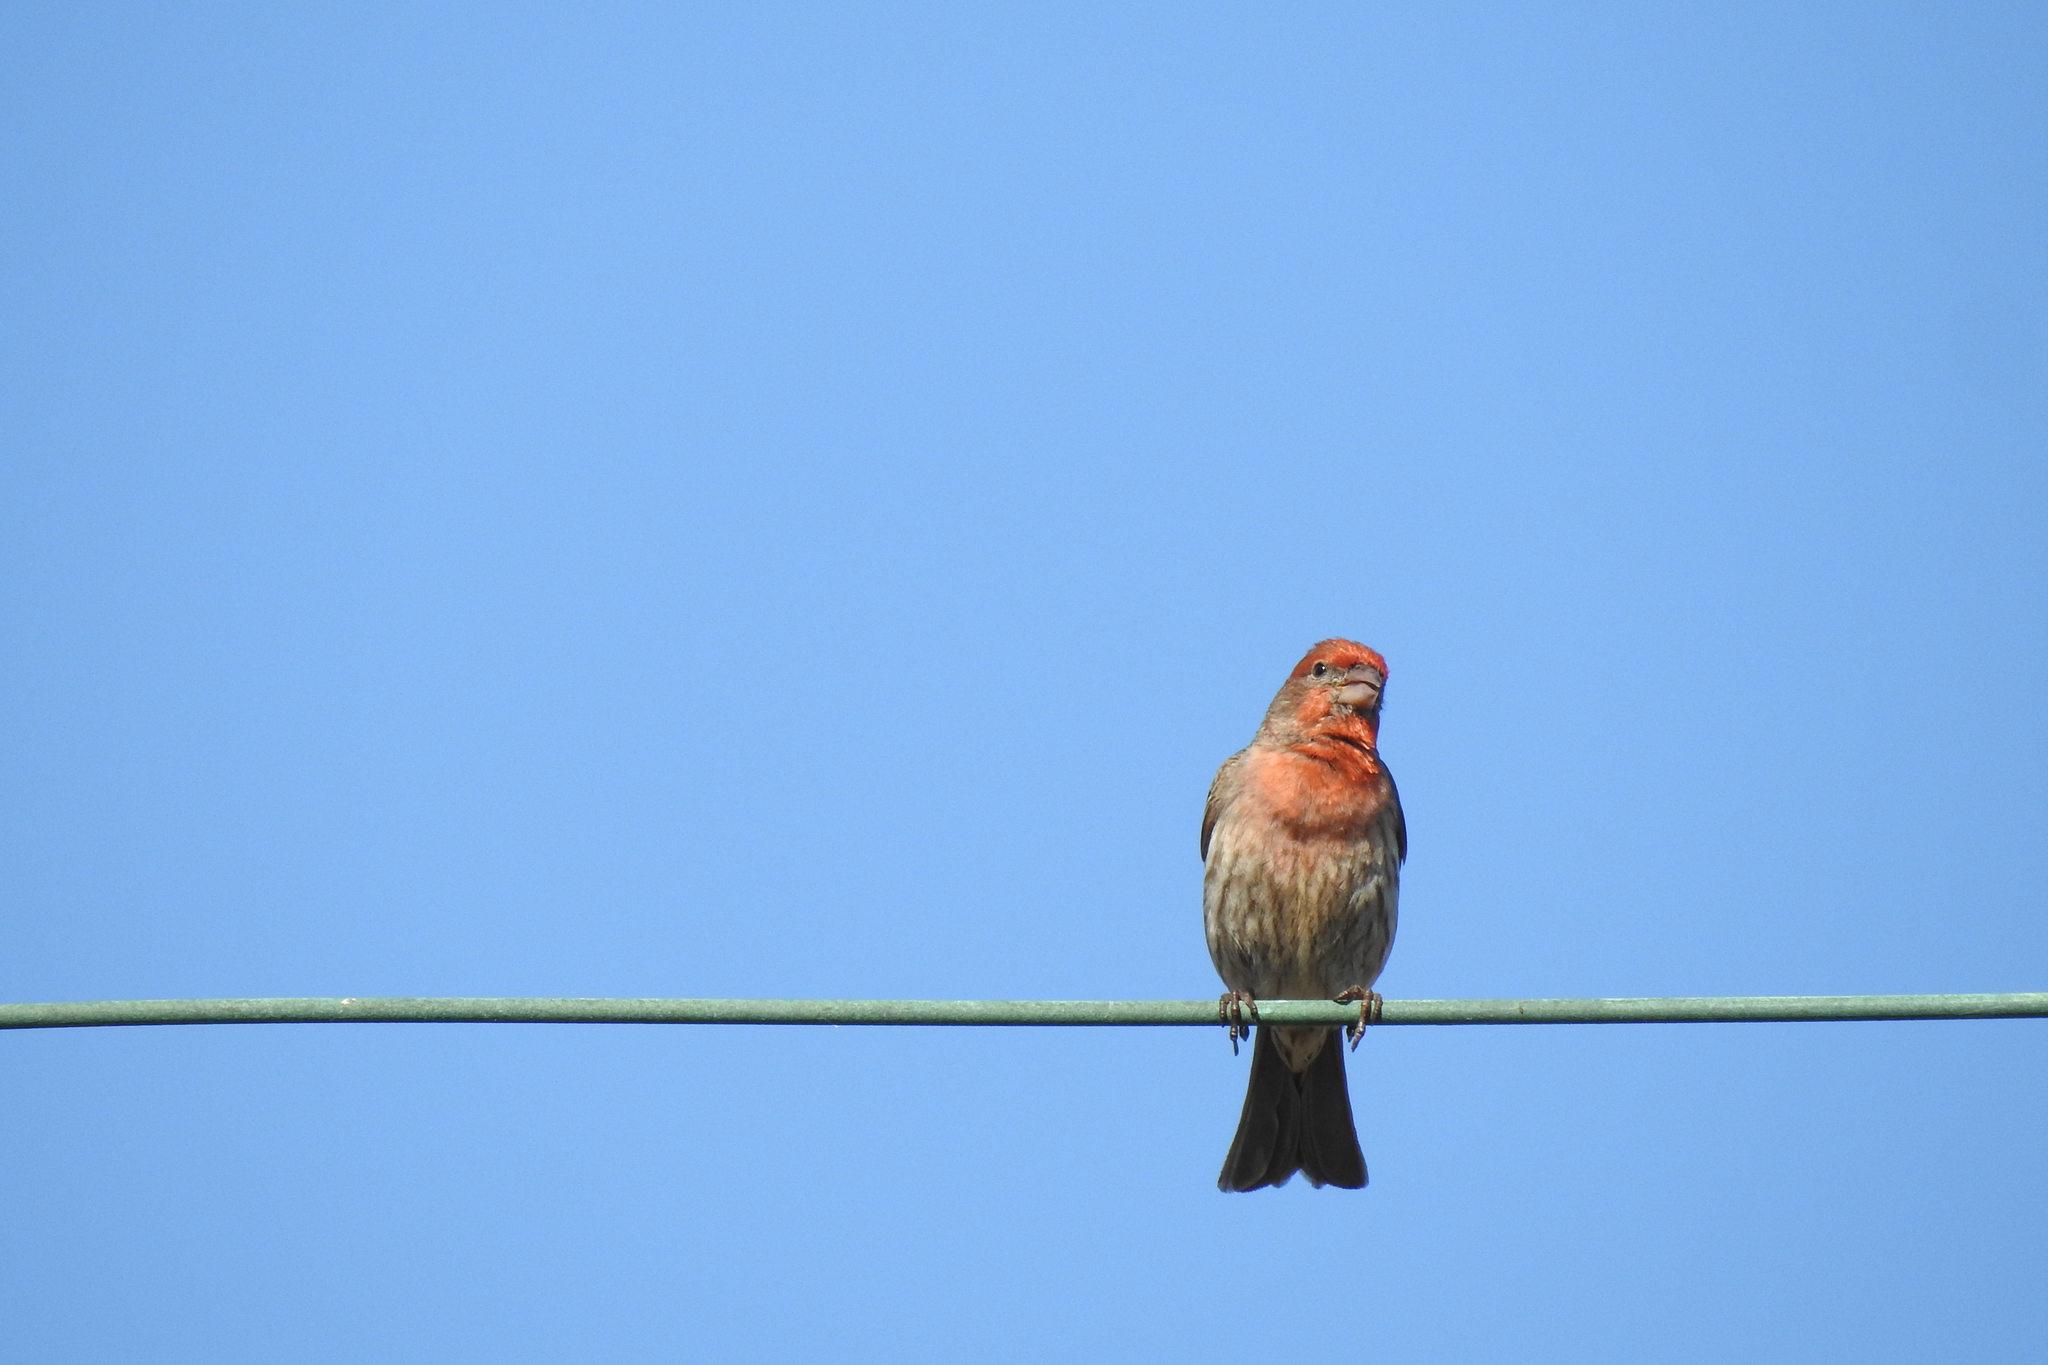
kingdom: Animalia
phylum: Chordata
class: Aves
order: Passeriformes
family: Fringillidae
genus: Haemorhous
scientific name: Haemorhous mexicanus
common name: House finch
